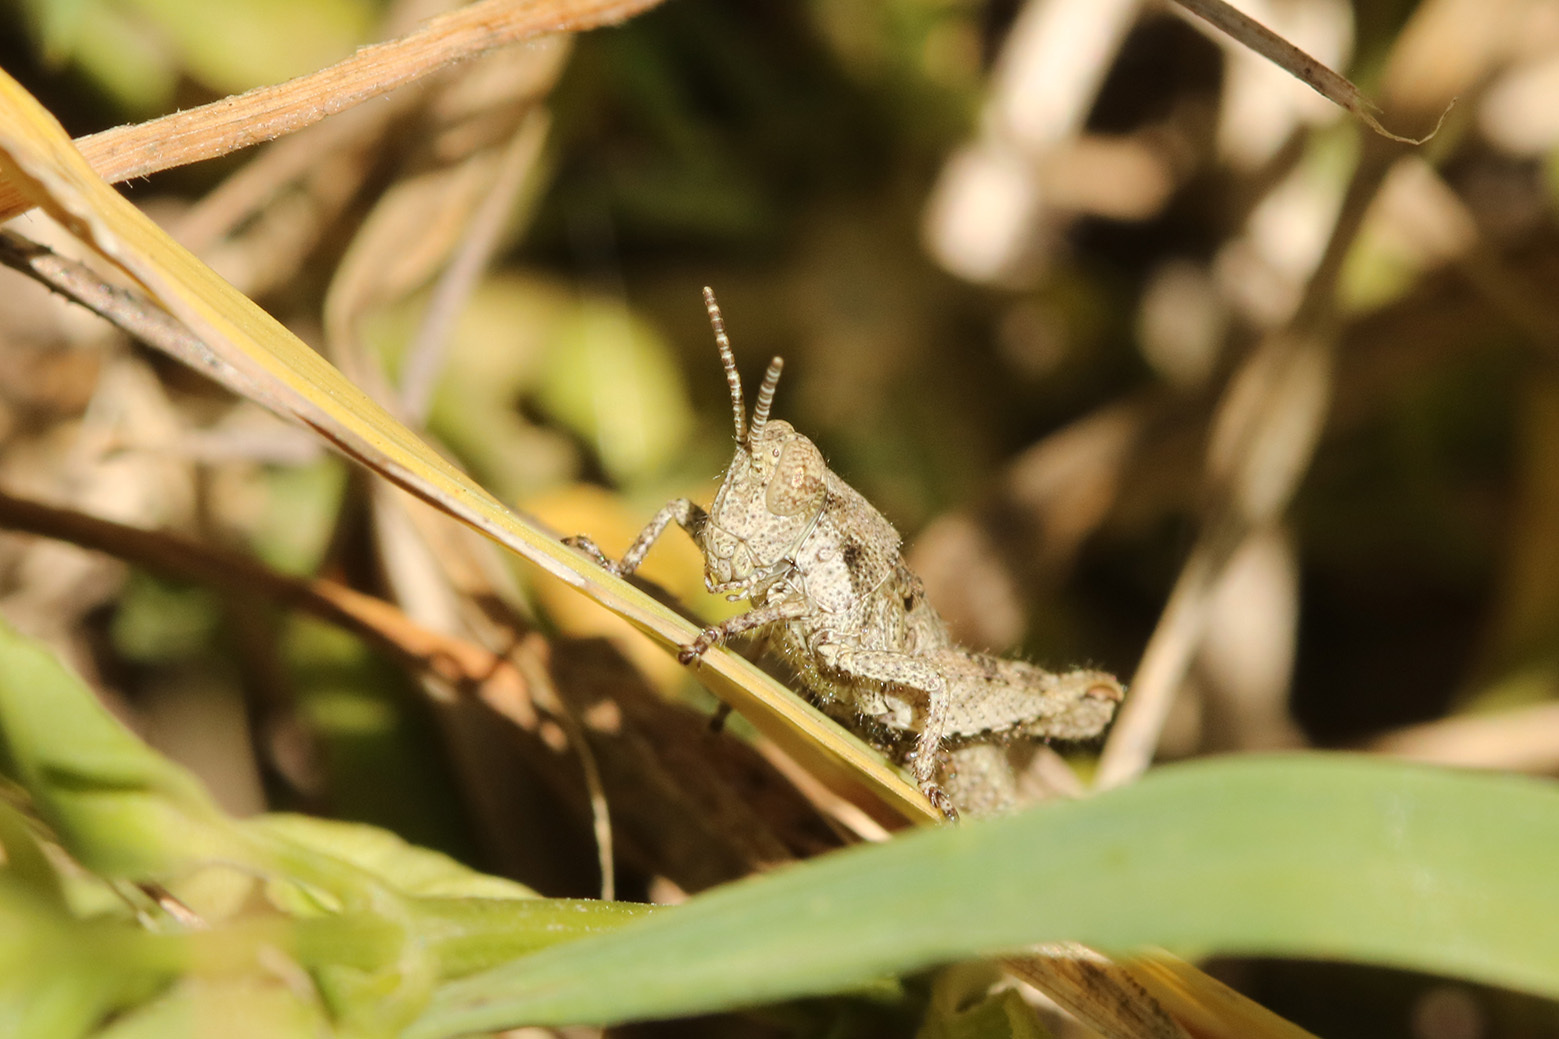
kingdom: Animalia
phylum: Arthropoda
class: Insecta
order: Orthoptera
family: Acrididae
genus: Ronderosia
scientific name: Ronderosia bergii
